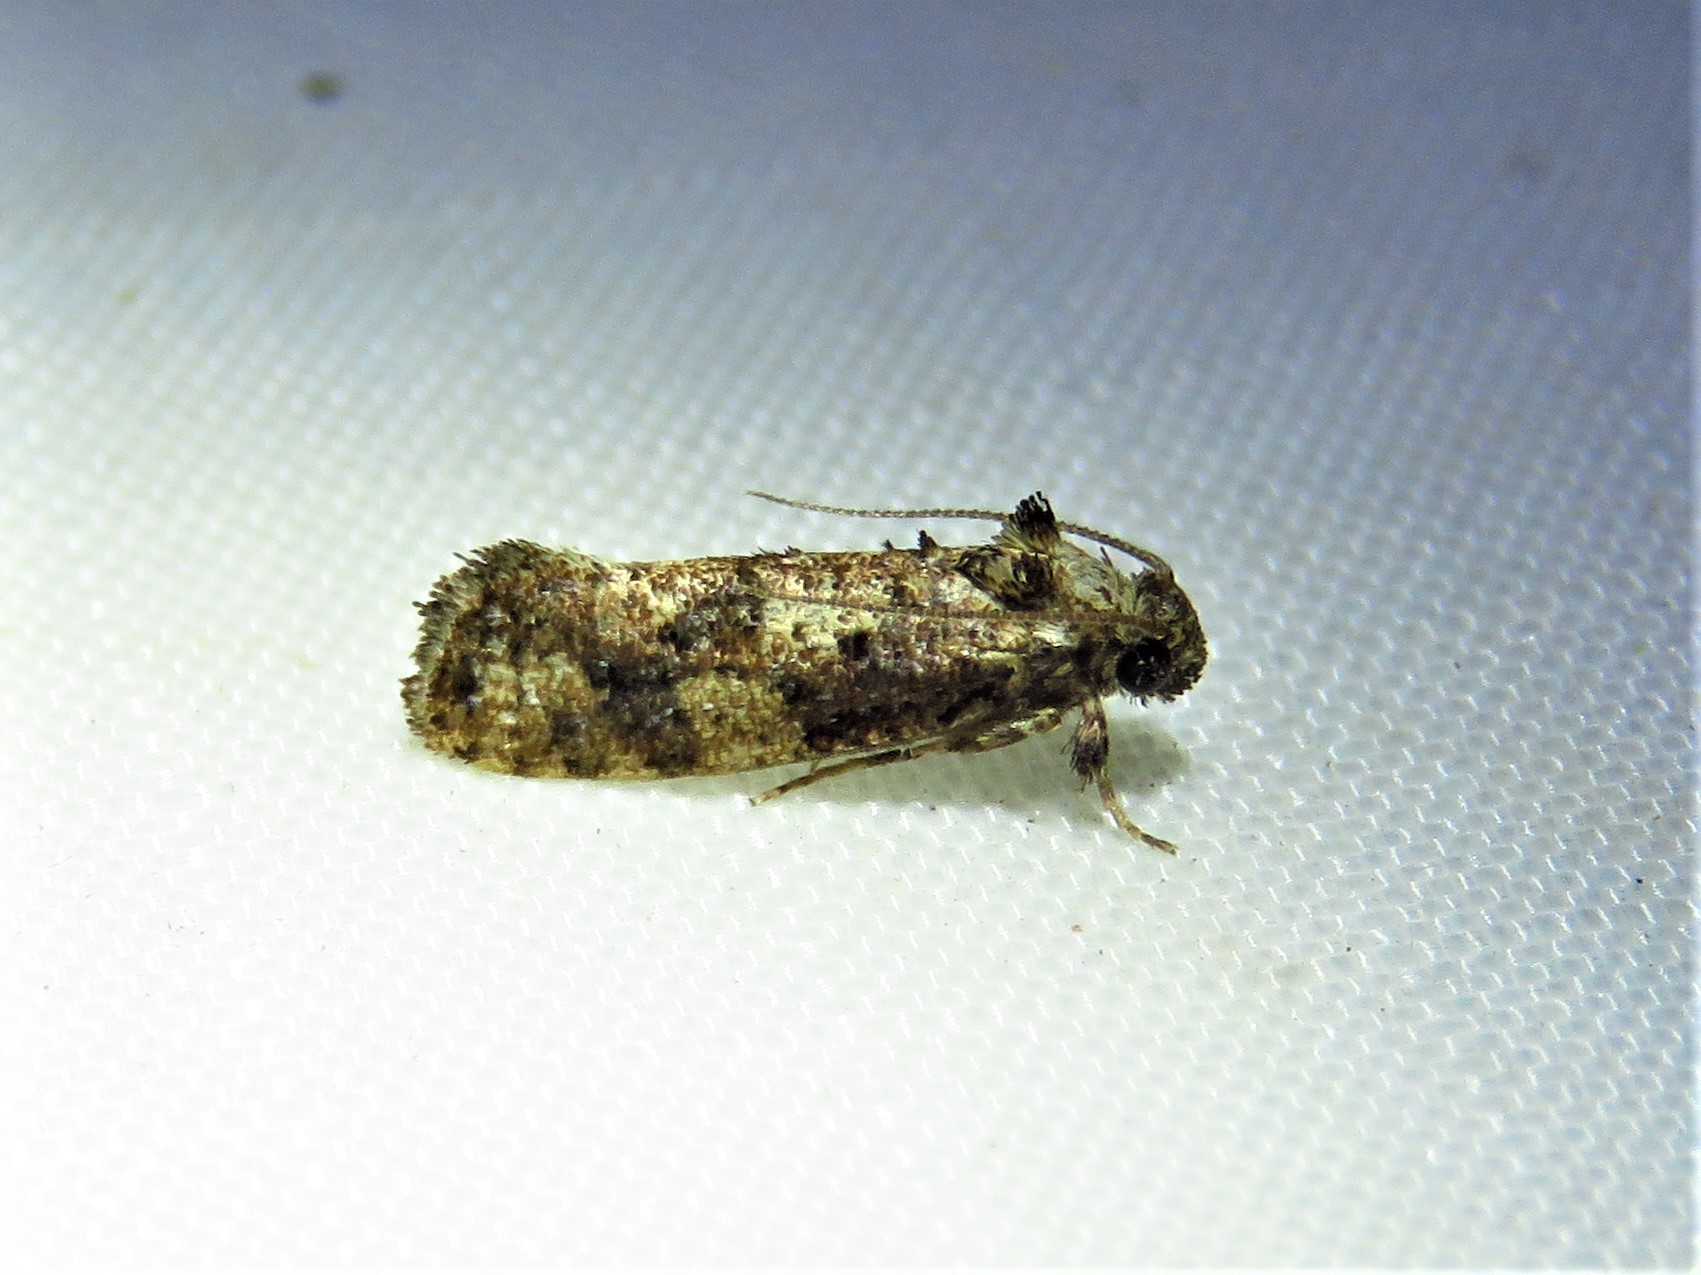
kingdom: Animalia
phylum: Arthropoda
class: Insecta
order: Lepidoptera
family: Tineidae
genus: Acrolophus
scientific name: Acrolophus cressoni
